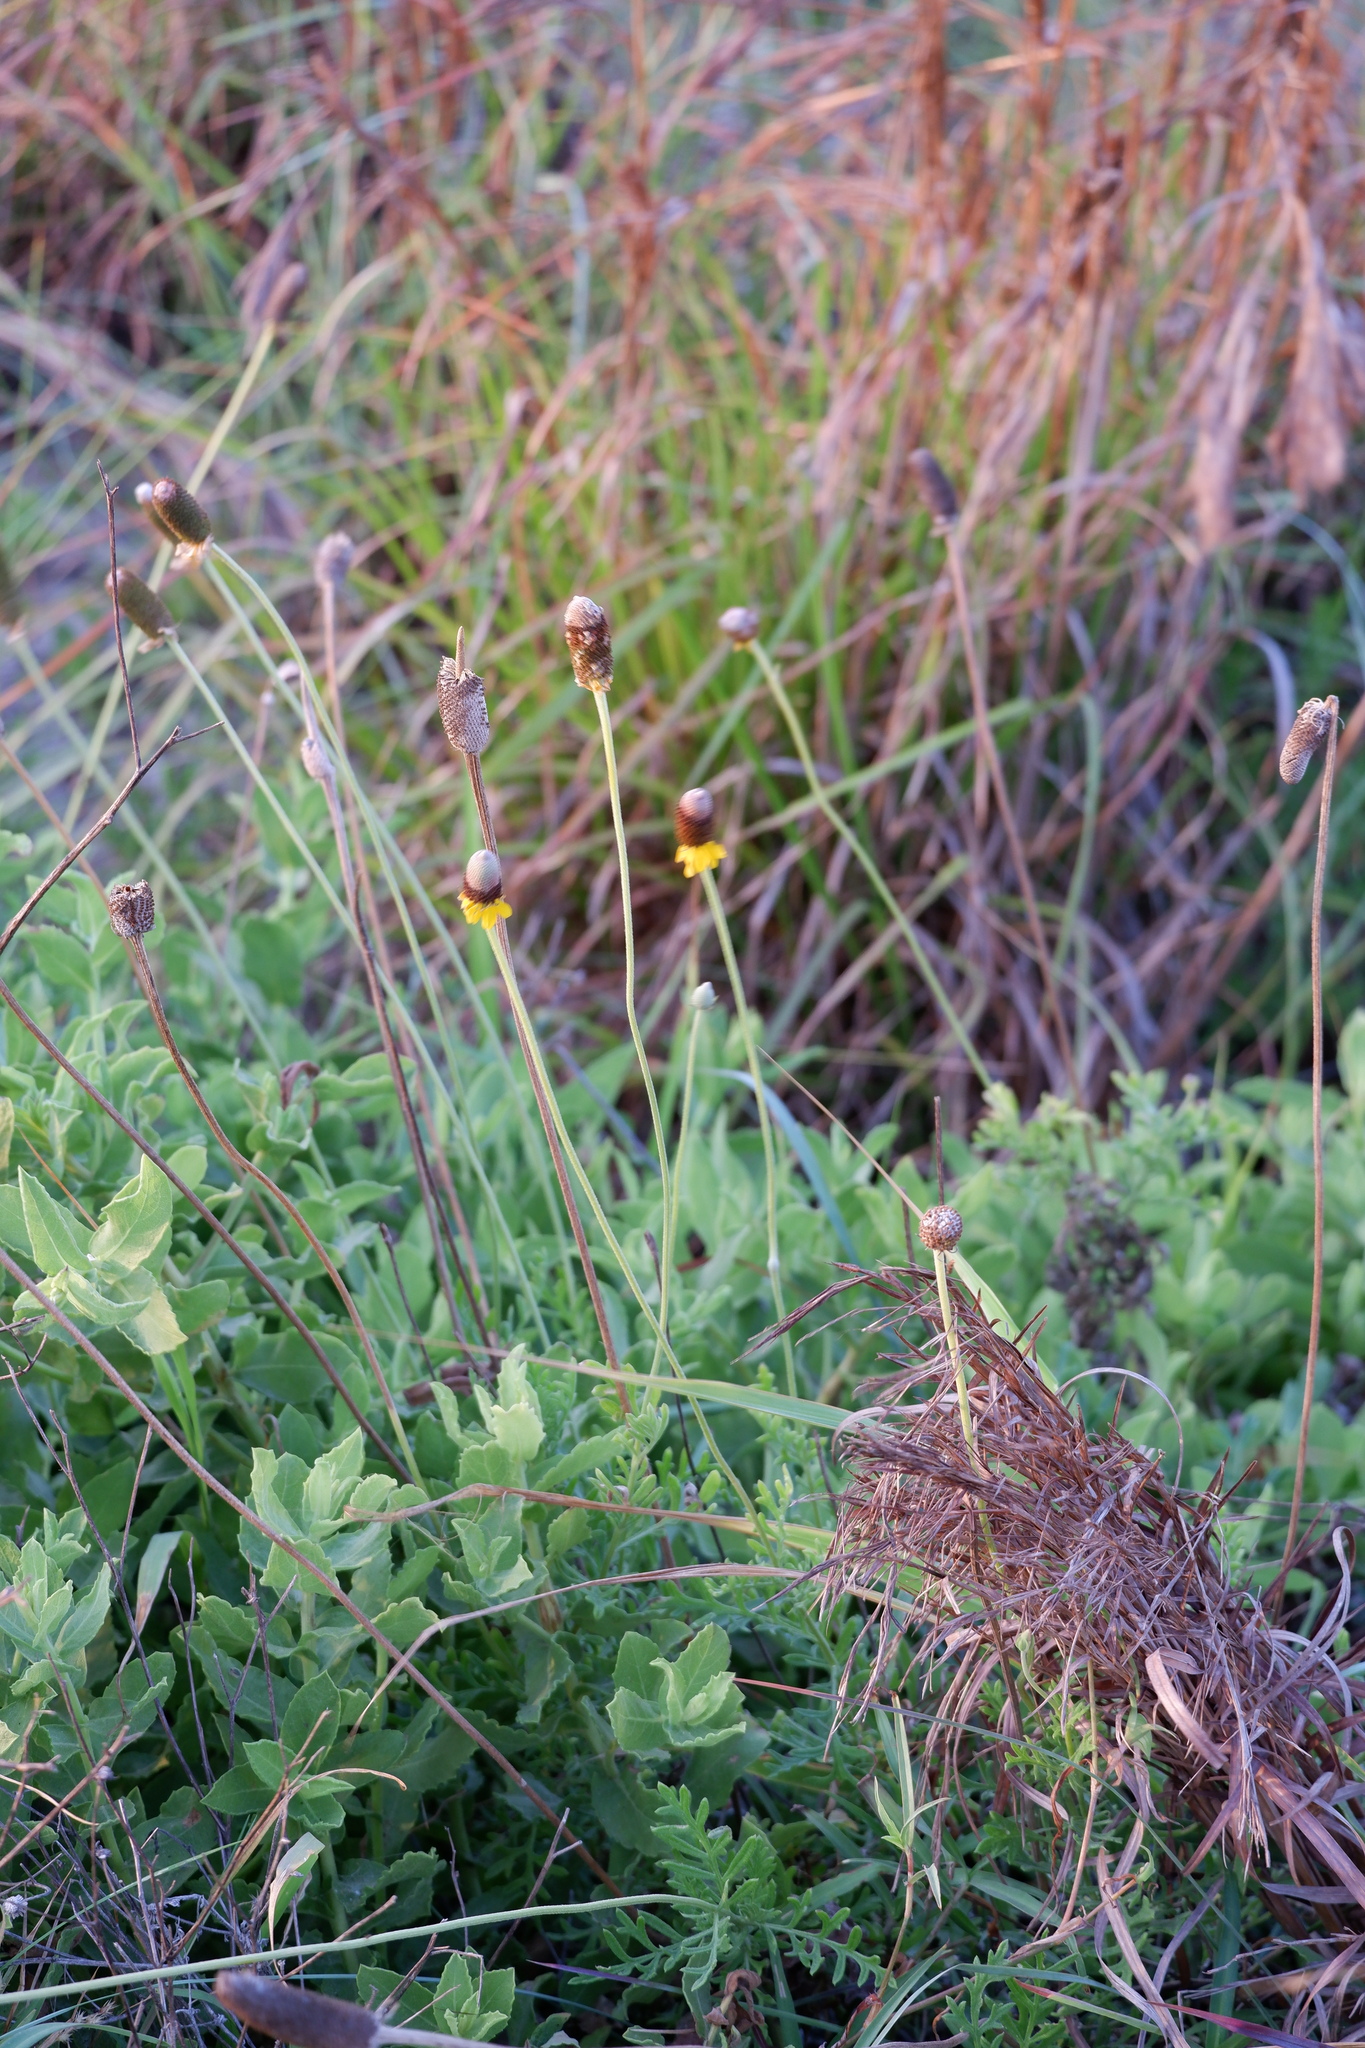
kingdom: Plantae
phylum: Tracheophyta
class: Magnoliopsida
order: Asterales
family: Asteraceae
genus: Ratibida
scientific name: Ratibida peduncularis
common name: Naked prairie-coneflower
